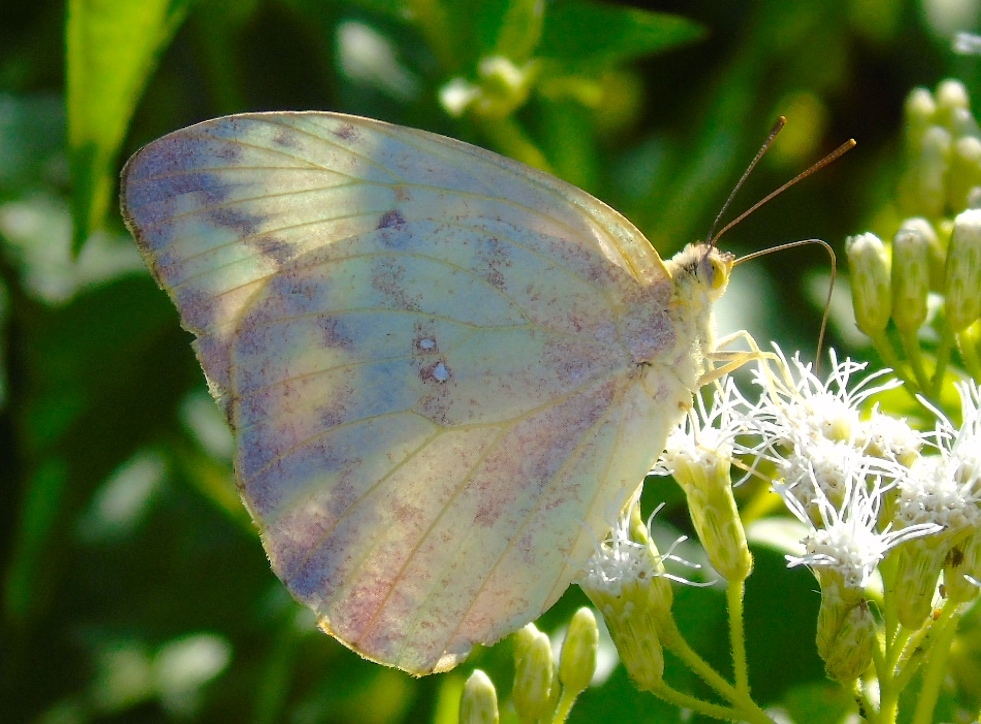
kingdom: Animalia
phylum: Arthropoda
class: Insecta
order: Lepidoptera
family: Pieridae
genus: Phoebis
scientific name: Phoebis
